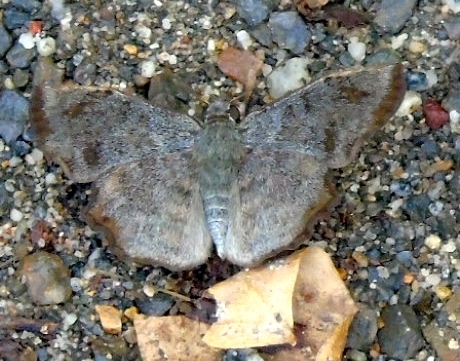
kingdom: Animalia
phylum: Arthropoda
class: Insecta
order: Lepidoptera
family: Hesperiidae
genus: Antigonus
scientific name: Antigonus erosus
